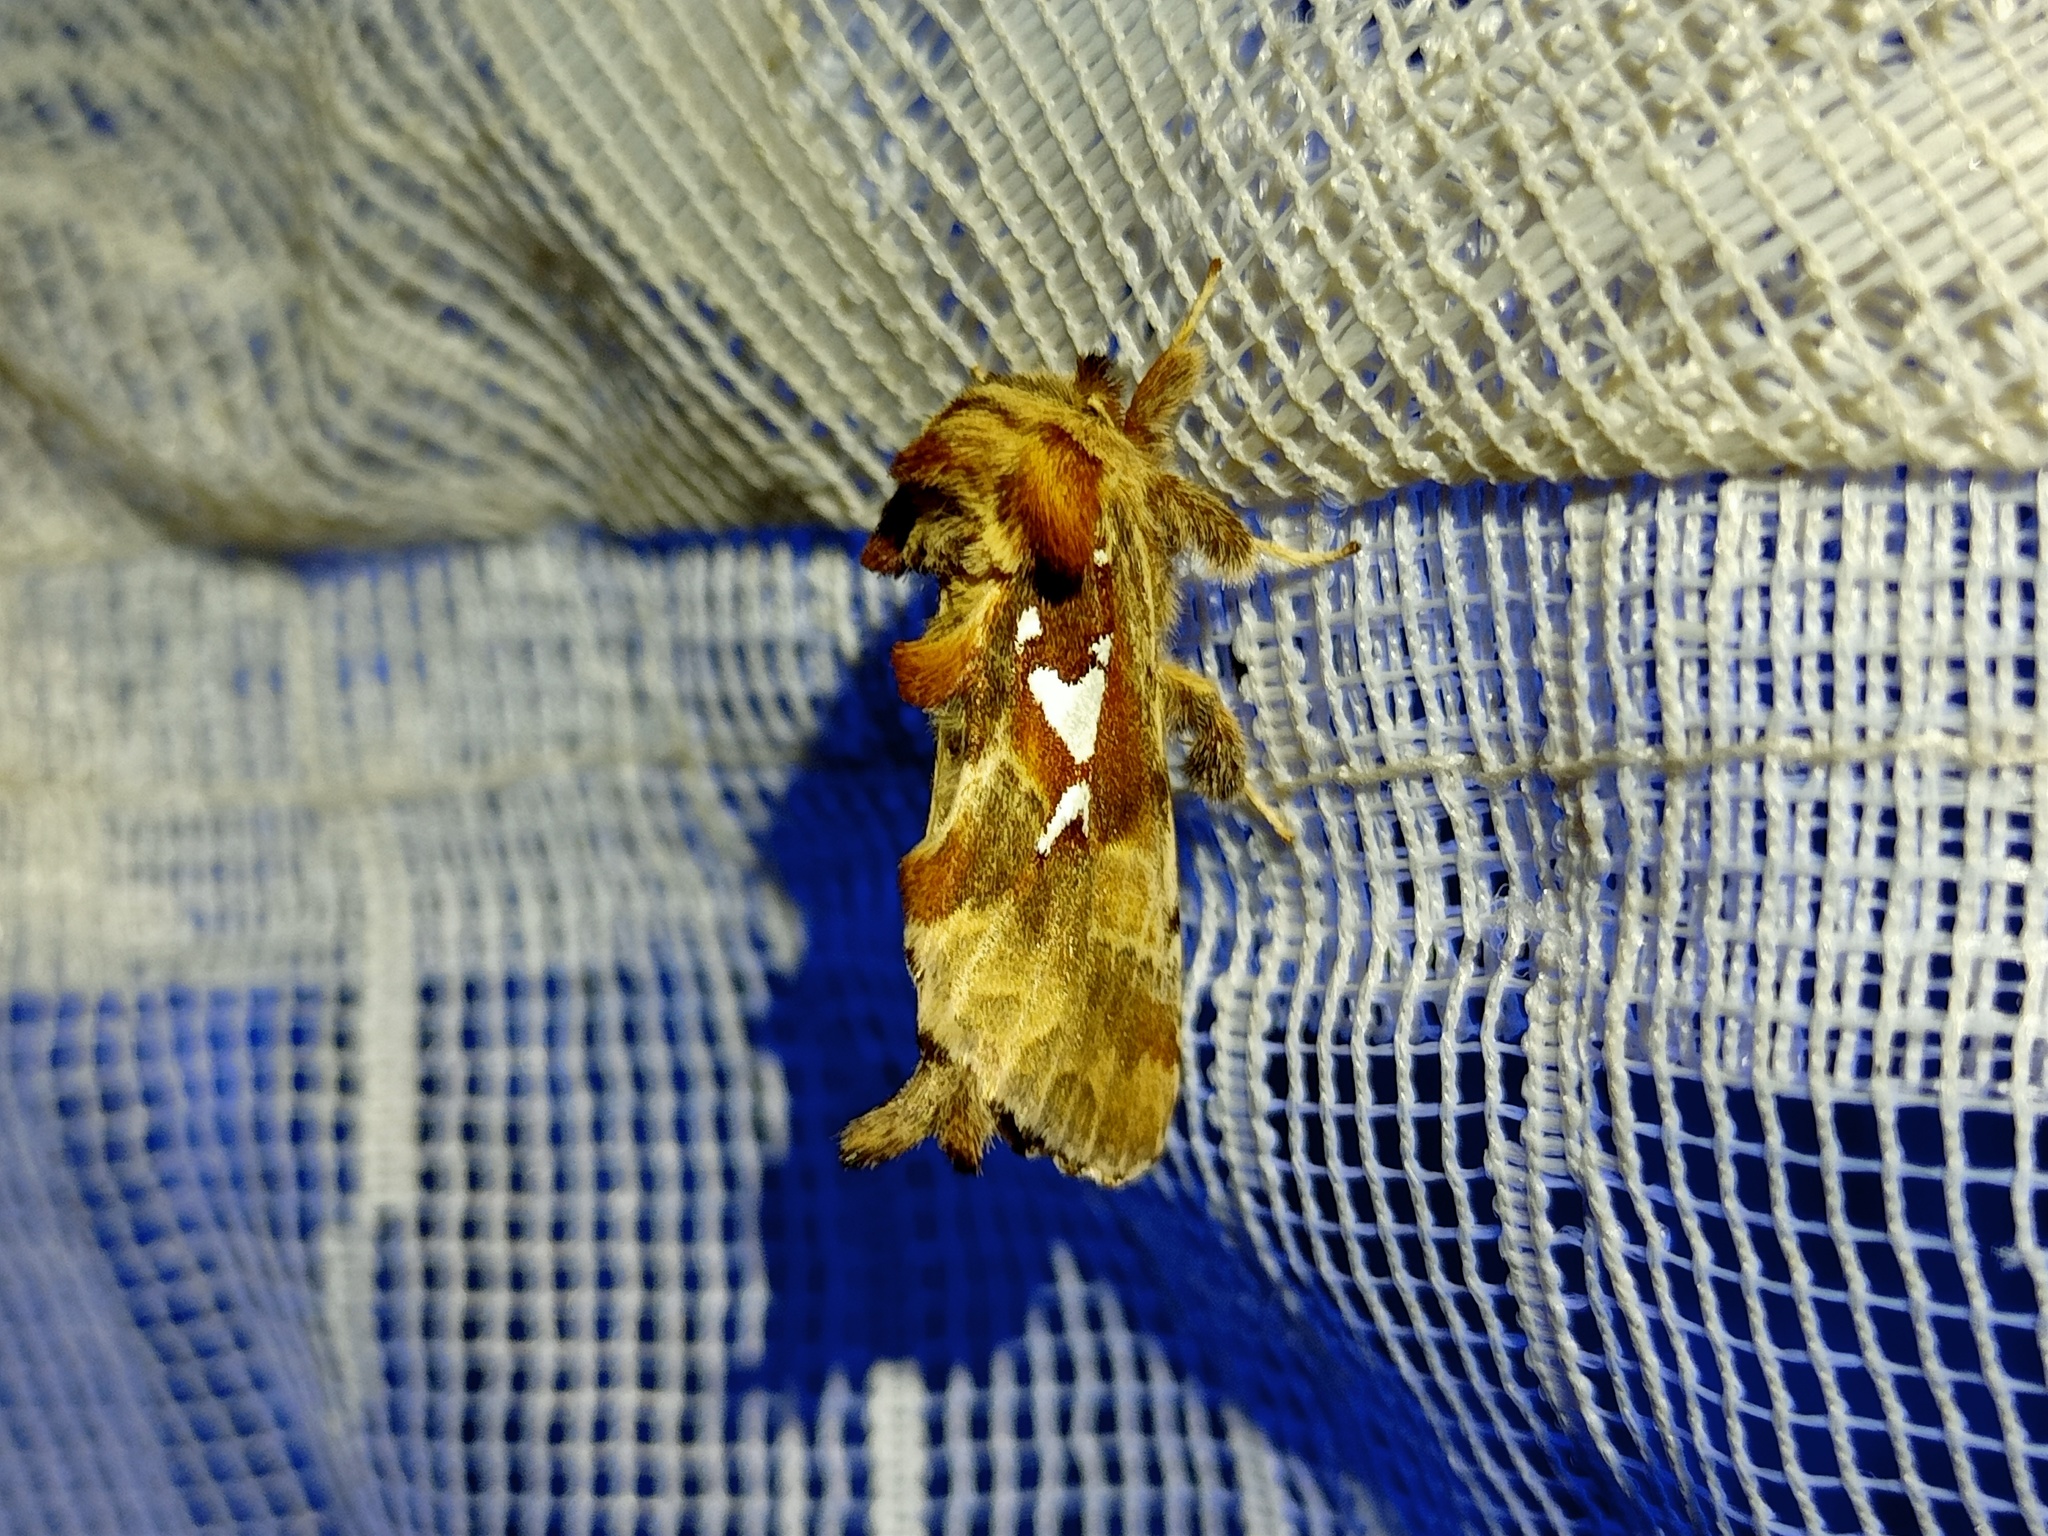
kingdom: Animalia
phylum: Arthropoda
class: Insecta
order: Lepidoptera
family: Notodontidae
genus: Spatalia
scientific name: Spatalia argentina
